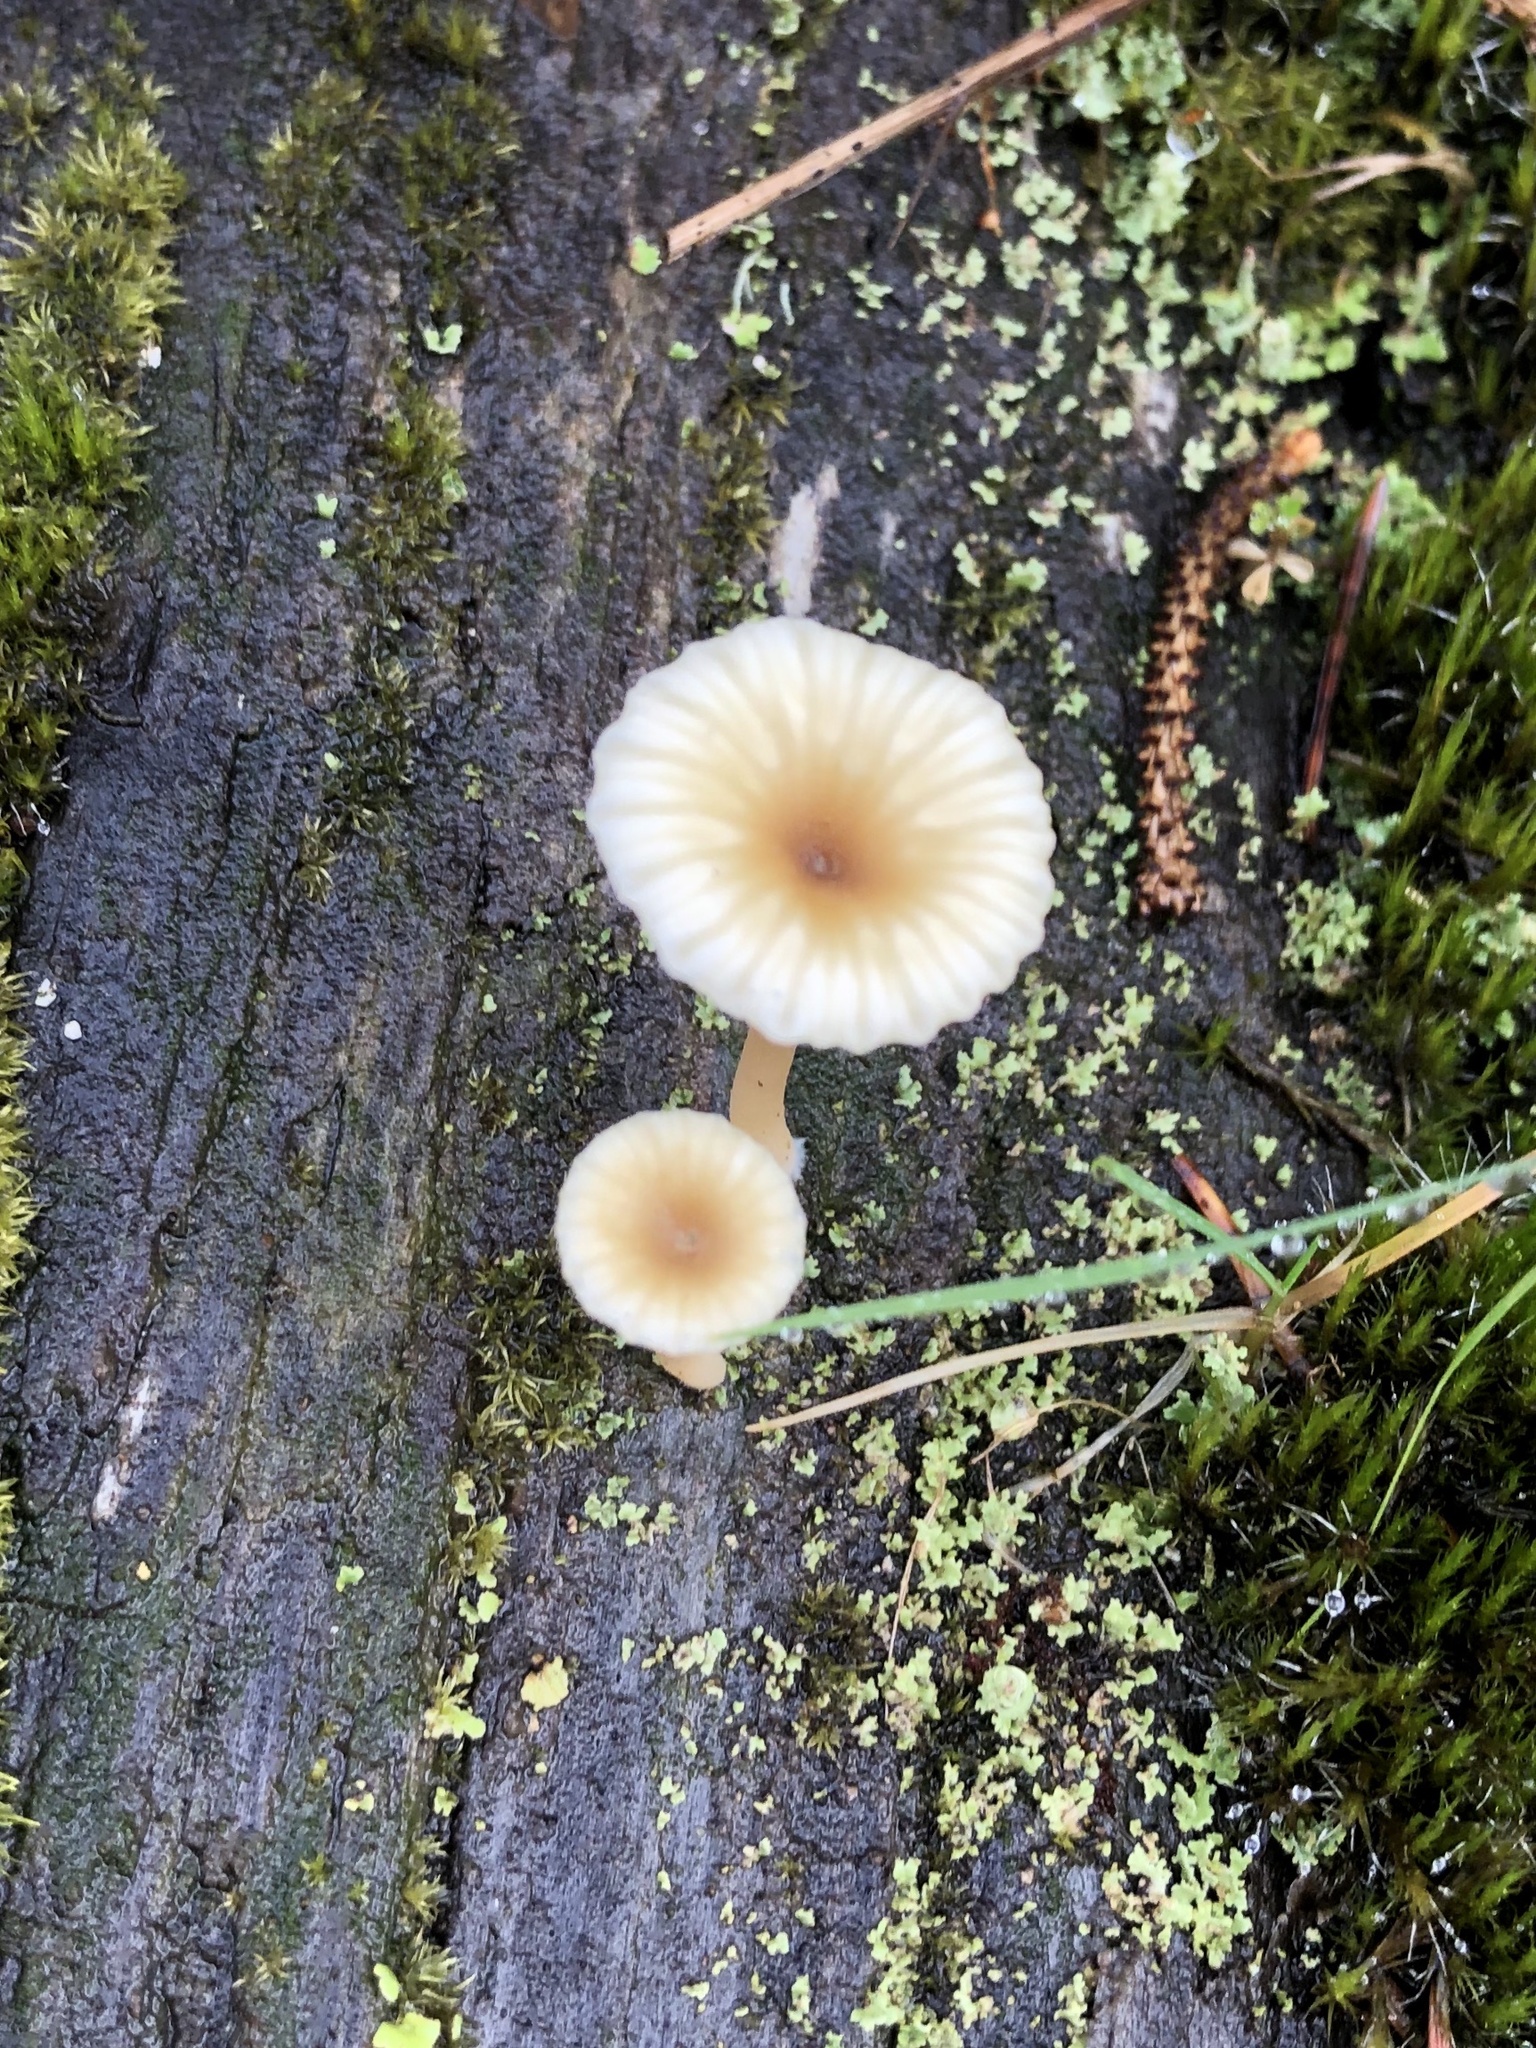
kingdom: Fungi
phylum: Basidiomycota
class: Agaricomycetes
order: Agaricales
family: Hygrophoraceae
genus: Lichenomphalia
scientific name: Lichenomphalia
